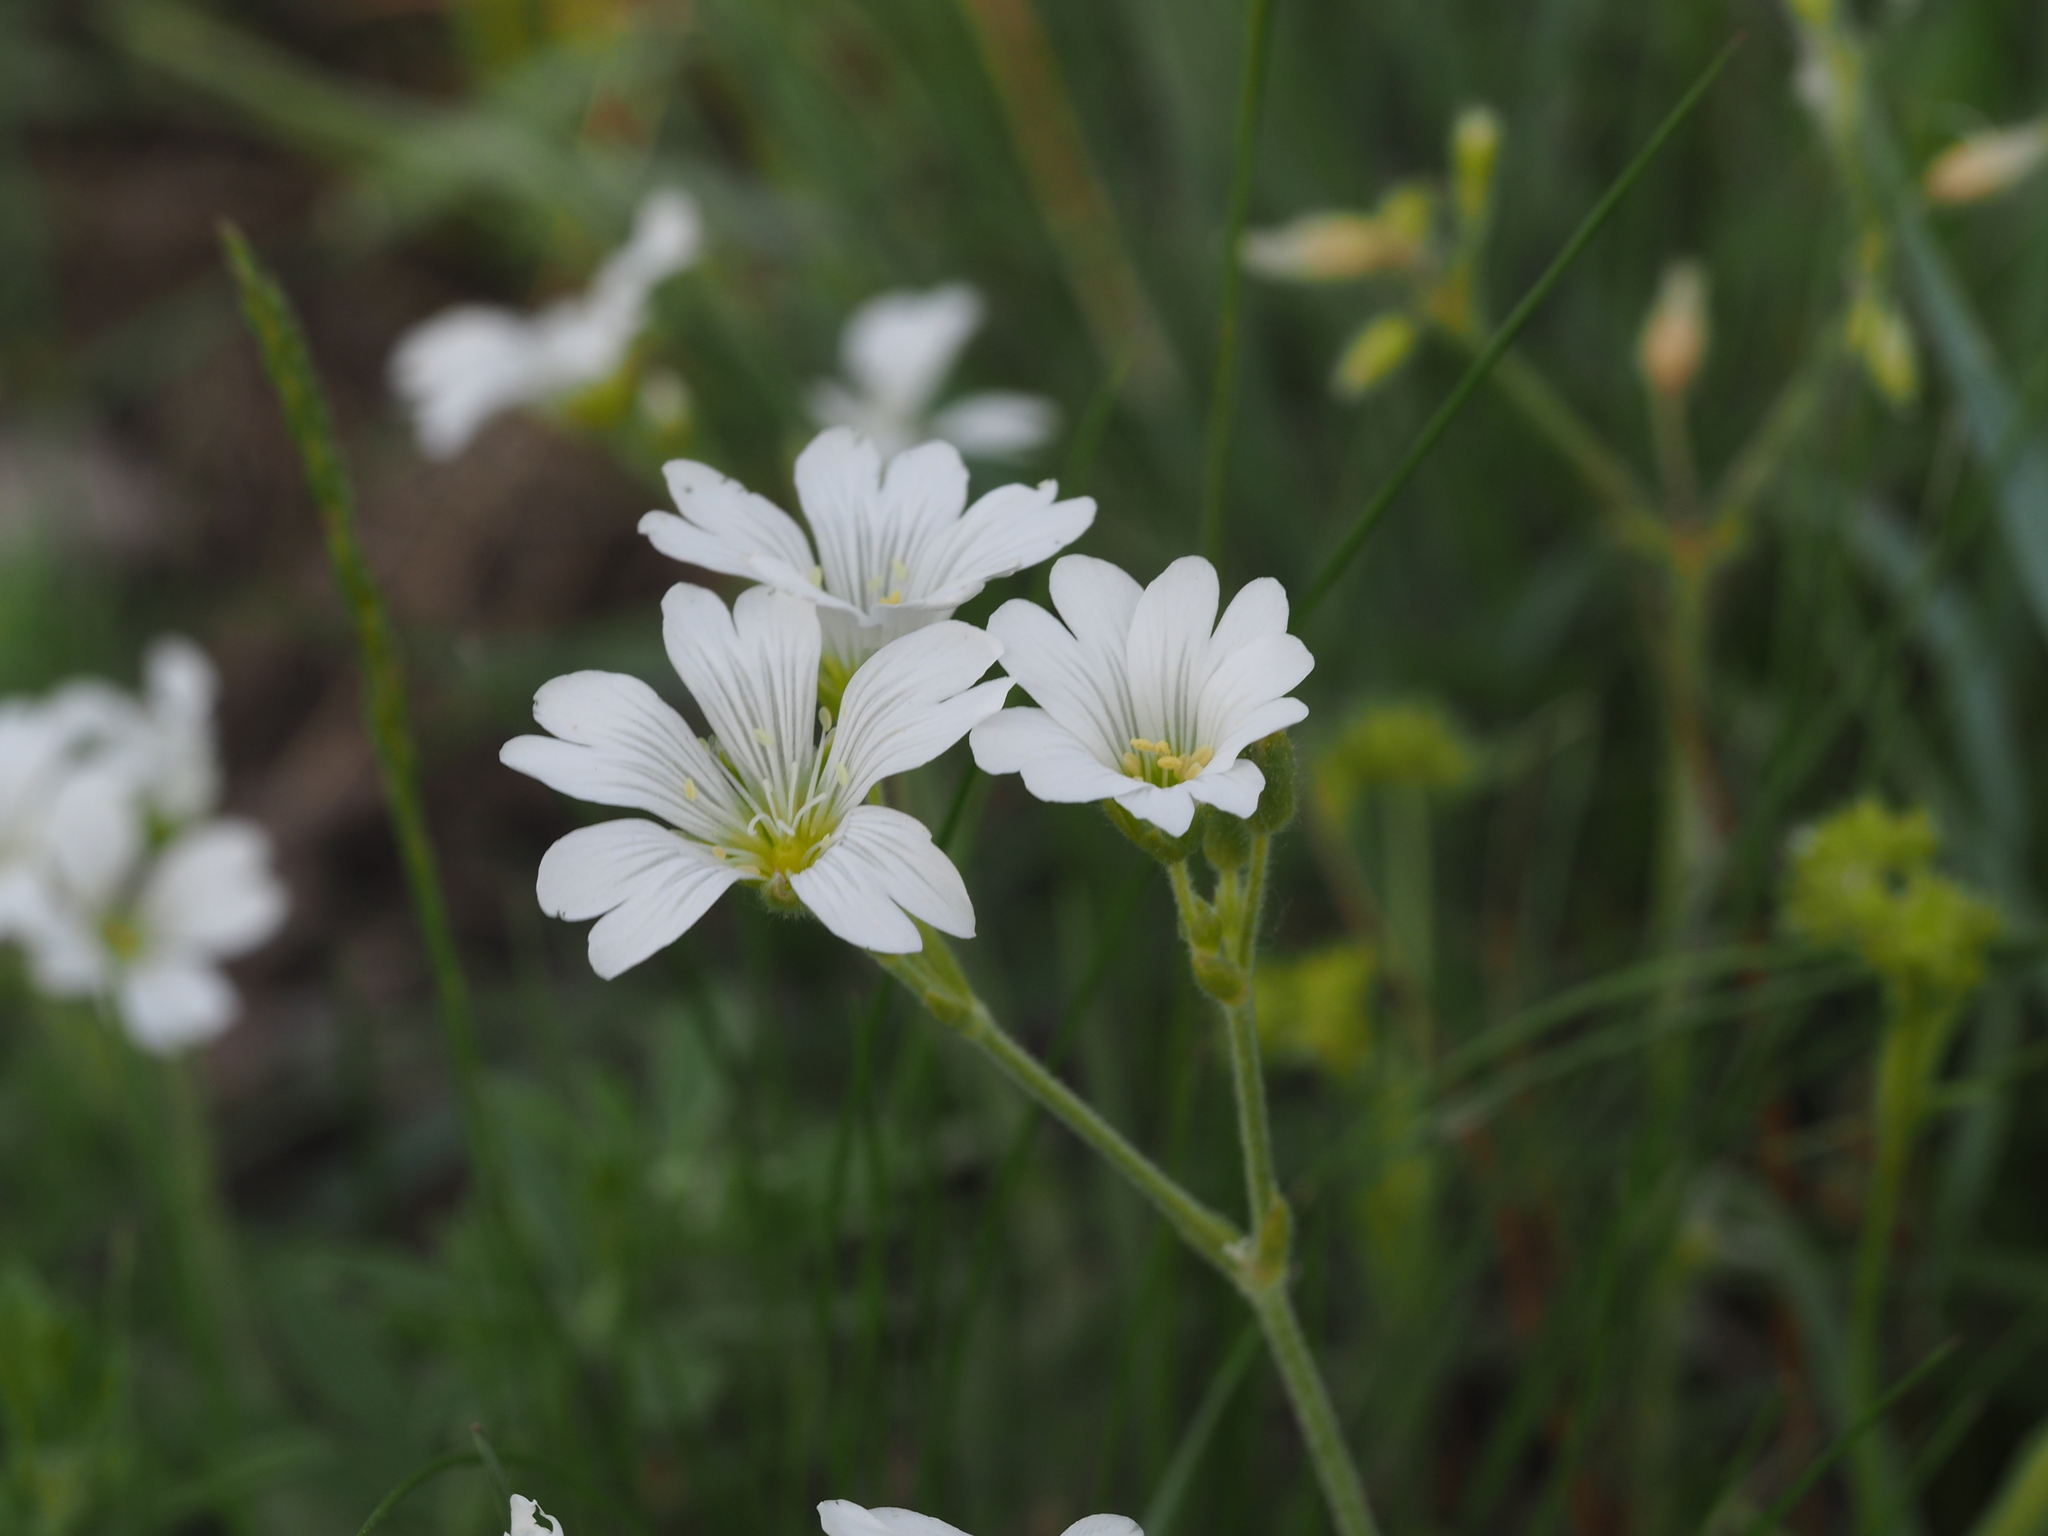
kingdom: Plantae
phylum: Tracheophyta
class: Magnoliopsida
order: Caryophyllales
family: Caryophyllaceae
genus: Cerastium
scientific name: Cerastium arvense
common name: Field mouse-ear
